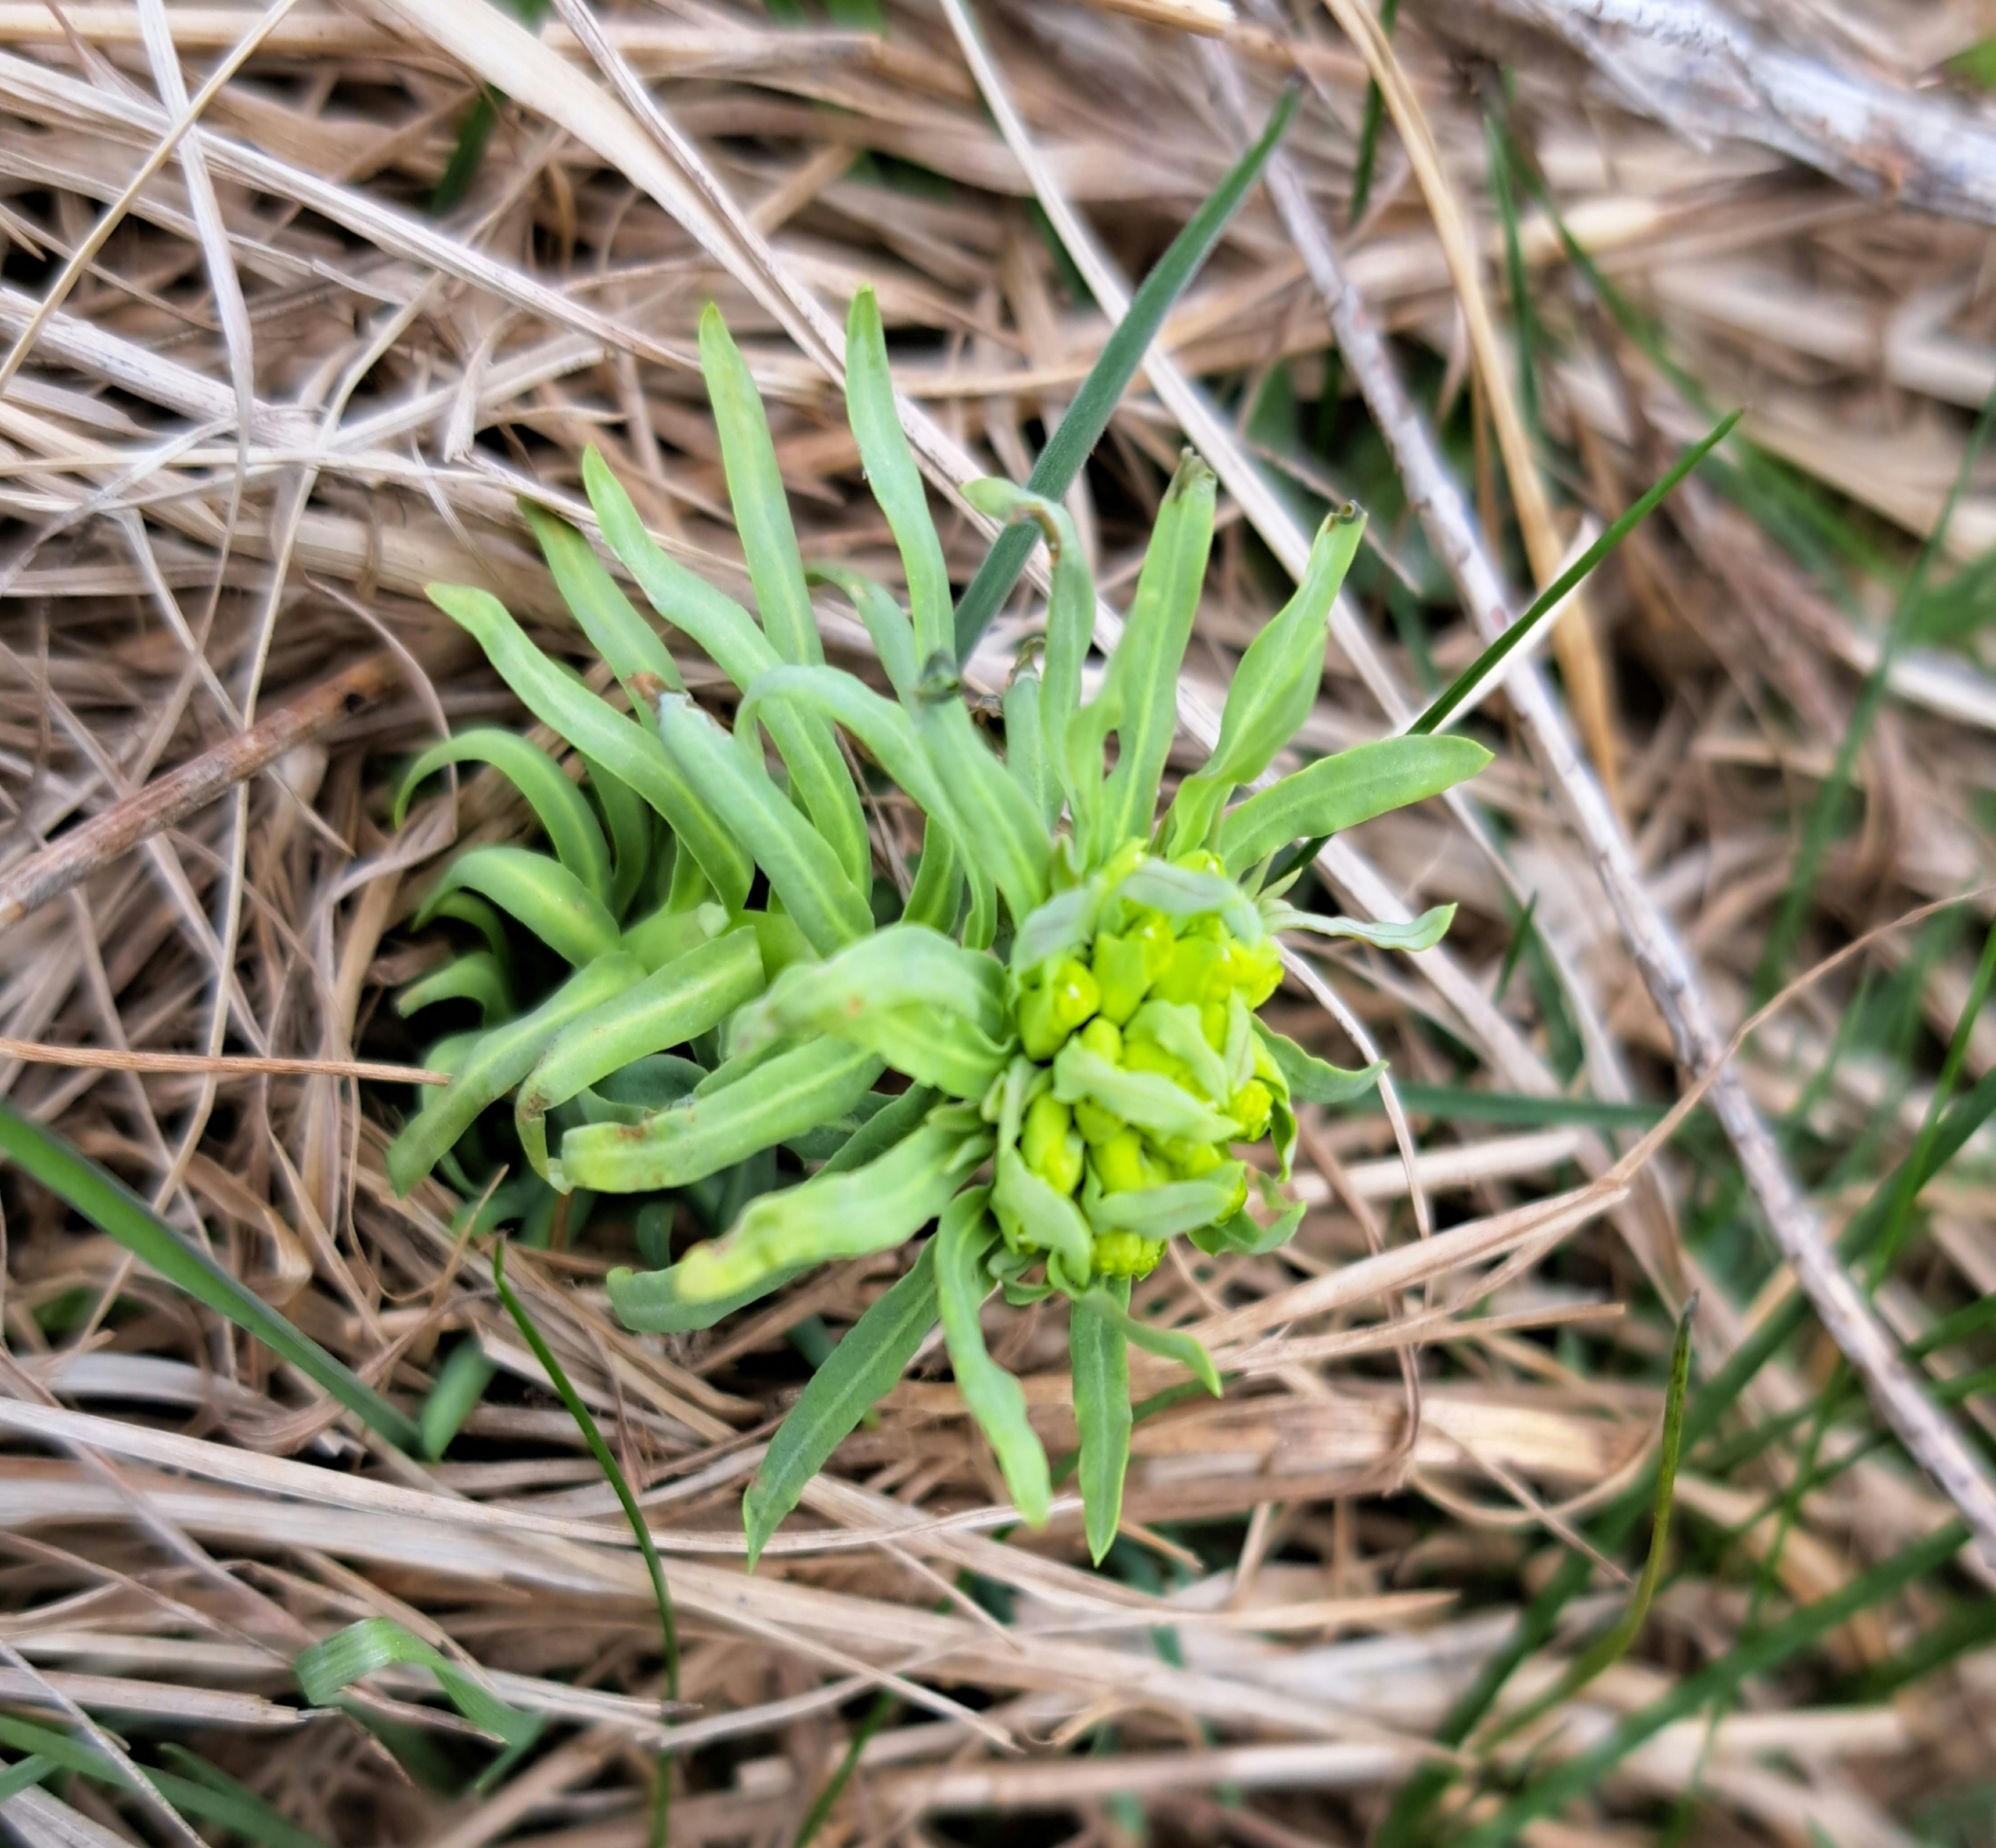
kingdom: Plantae
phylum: Tracheophyta
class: Magnoliopsida
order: Malpighiales
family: Euphorbiaceae
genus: Euphorbia
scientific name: Euphorbia cyparissias
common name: Cypress spurge
